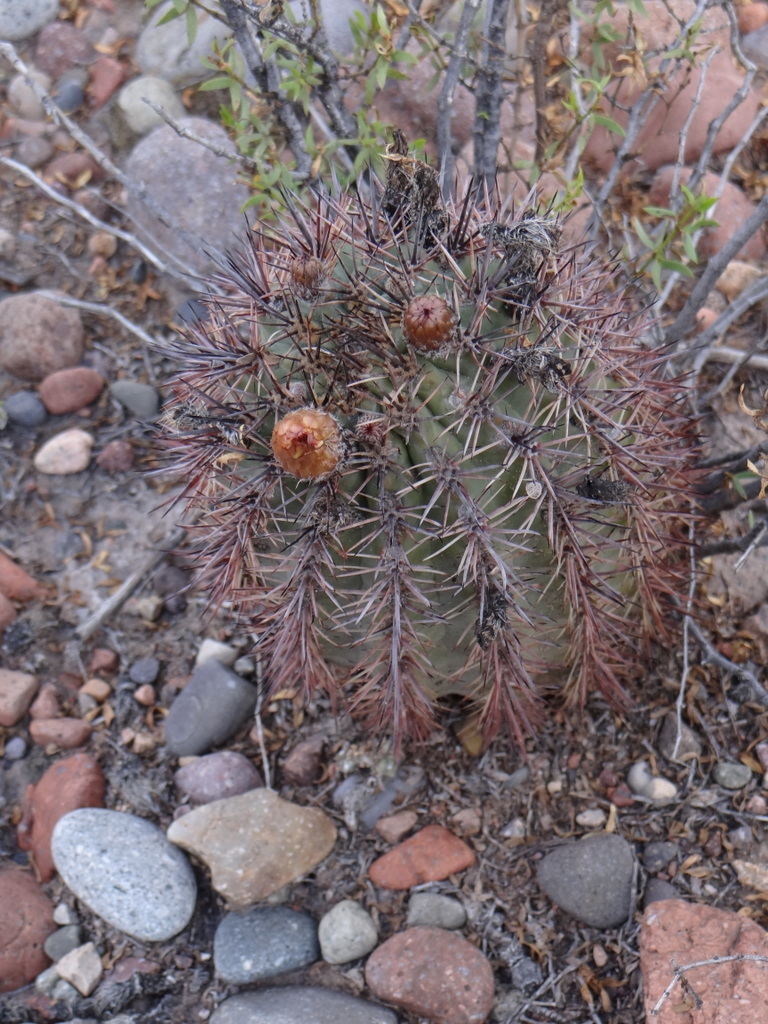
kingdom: Plantae
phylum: Tracheophyta
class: Magnoliopsida
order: Caryophyllales
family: Cactaceae
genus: Eriosyce
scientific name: Eriosyce strausiana
